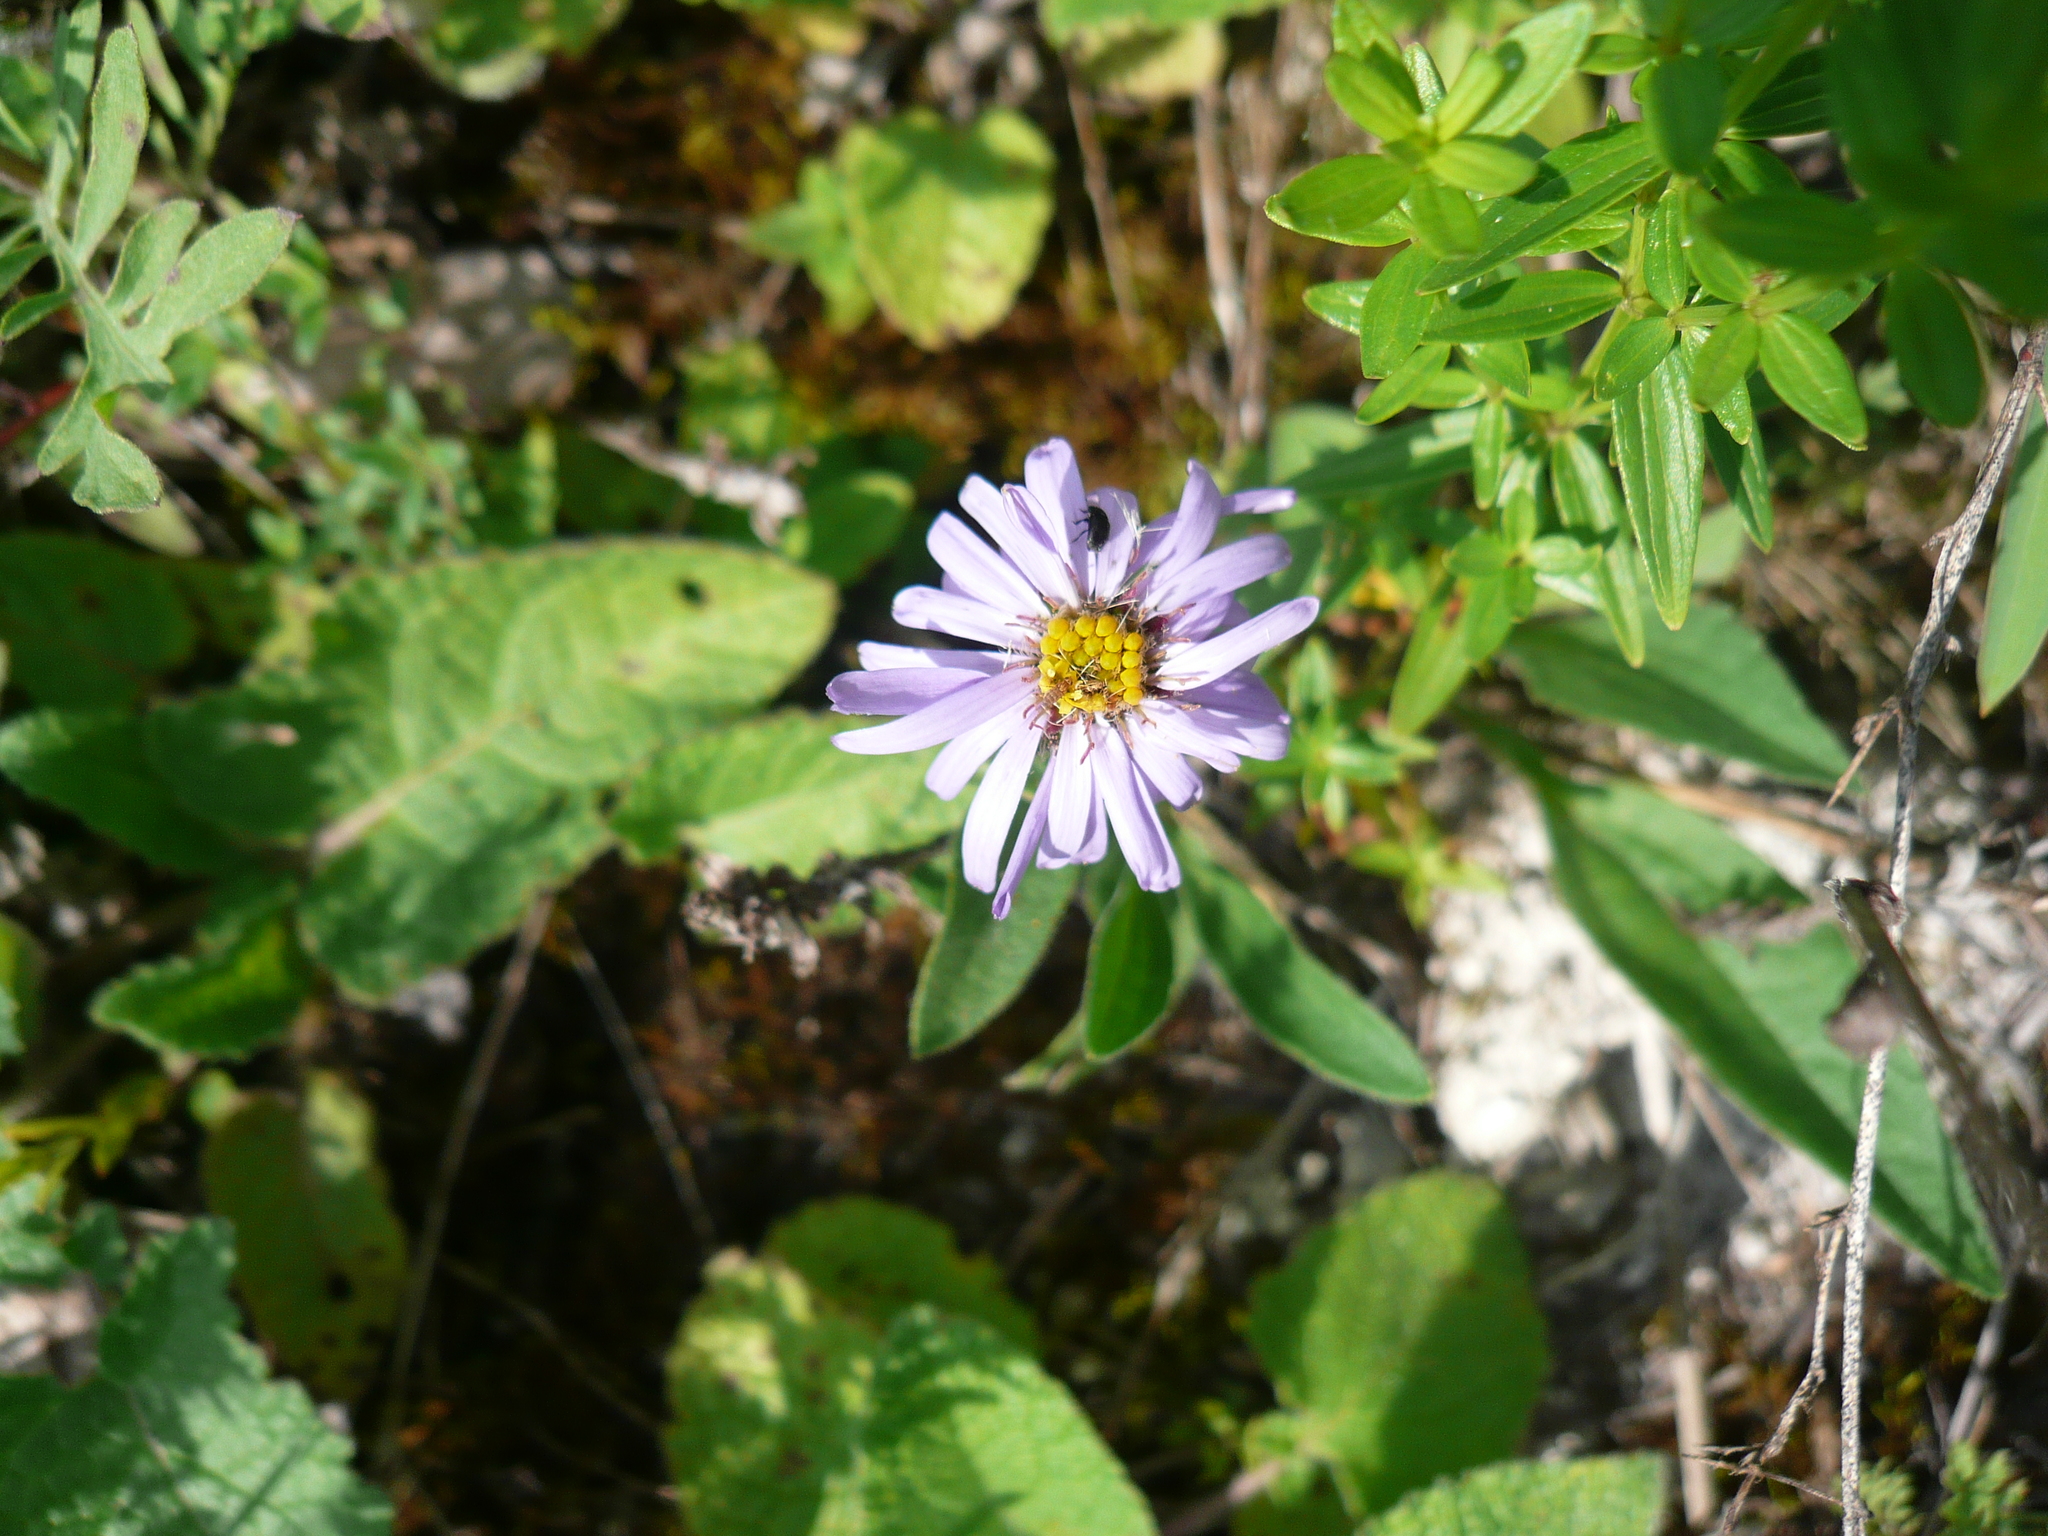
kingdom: Plantae
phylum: Tracheophyta
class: Magnoliopsida
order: Asterales
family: Asteraceae
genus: Aster
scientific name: Aster amellus
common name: European michaelmas daisy
